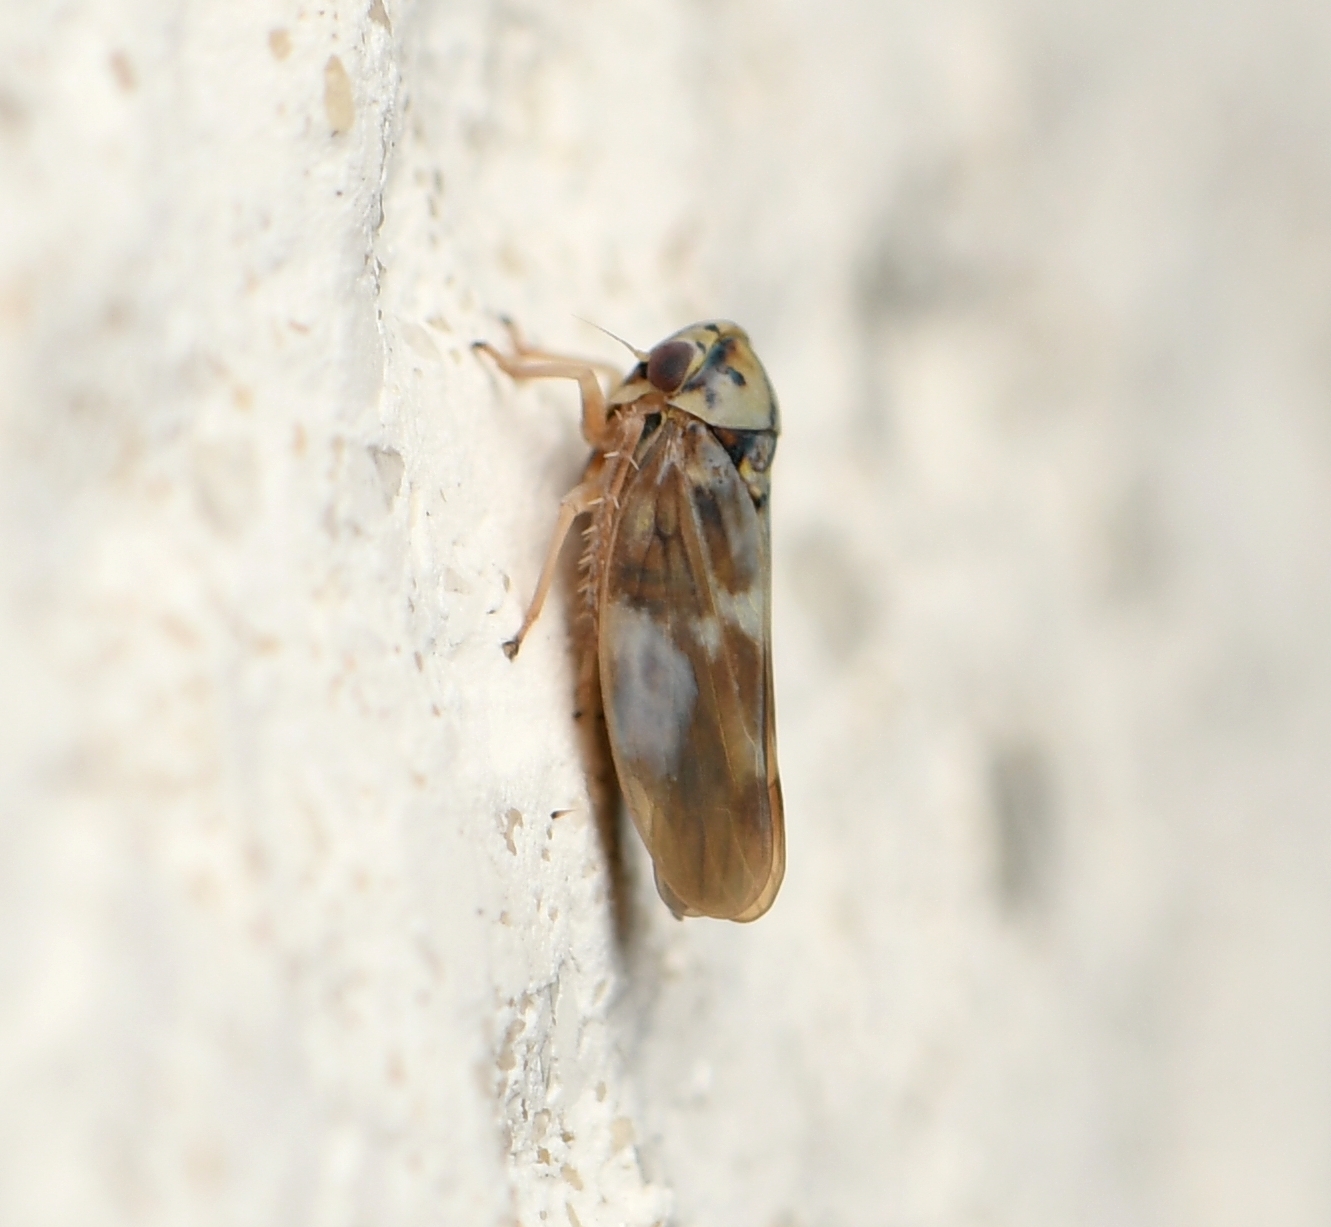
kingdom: Animalia
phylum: Arthropoda
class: Insecta
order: Hemiptera
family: Cicadellidae
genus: Agalliopsis
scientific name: Agalliopsis cervina
